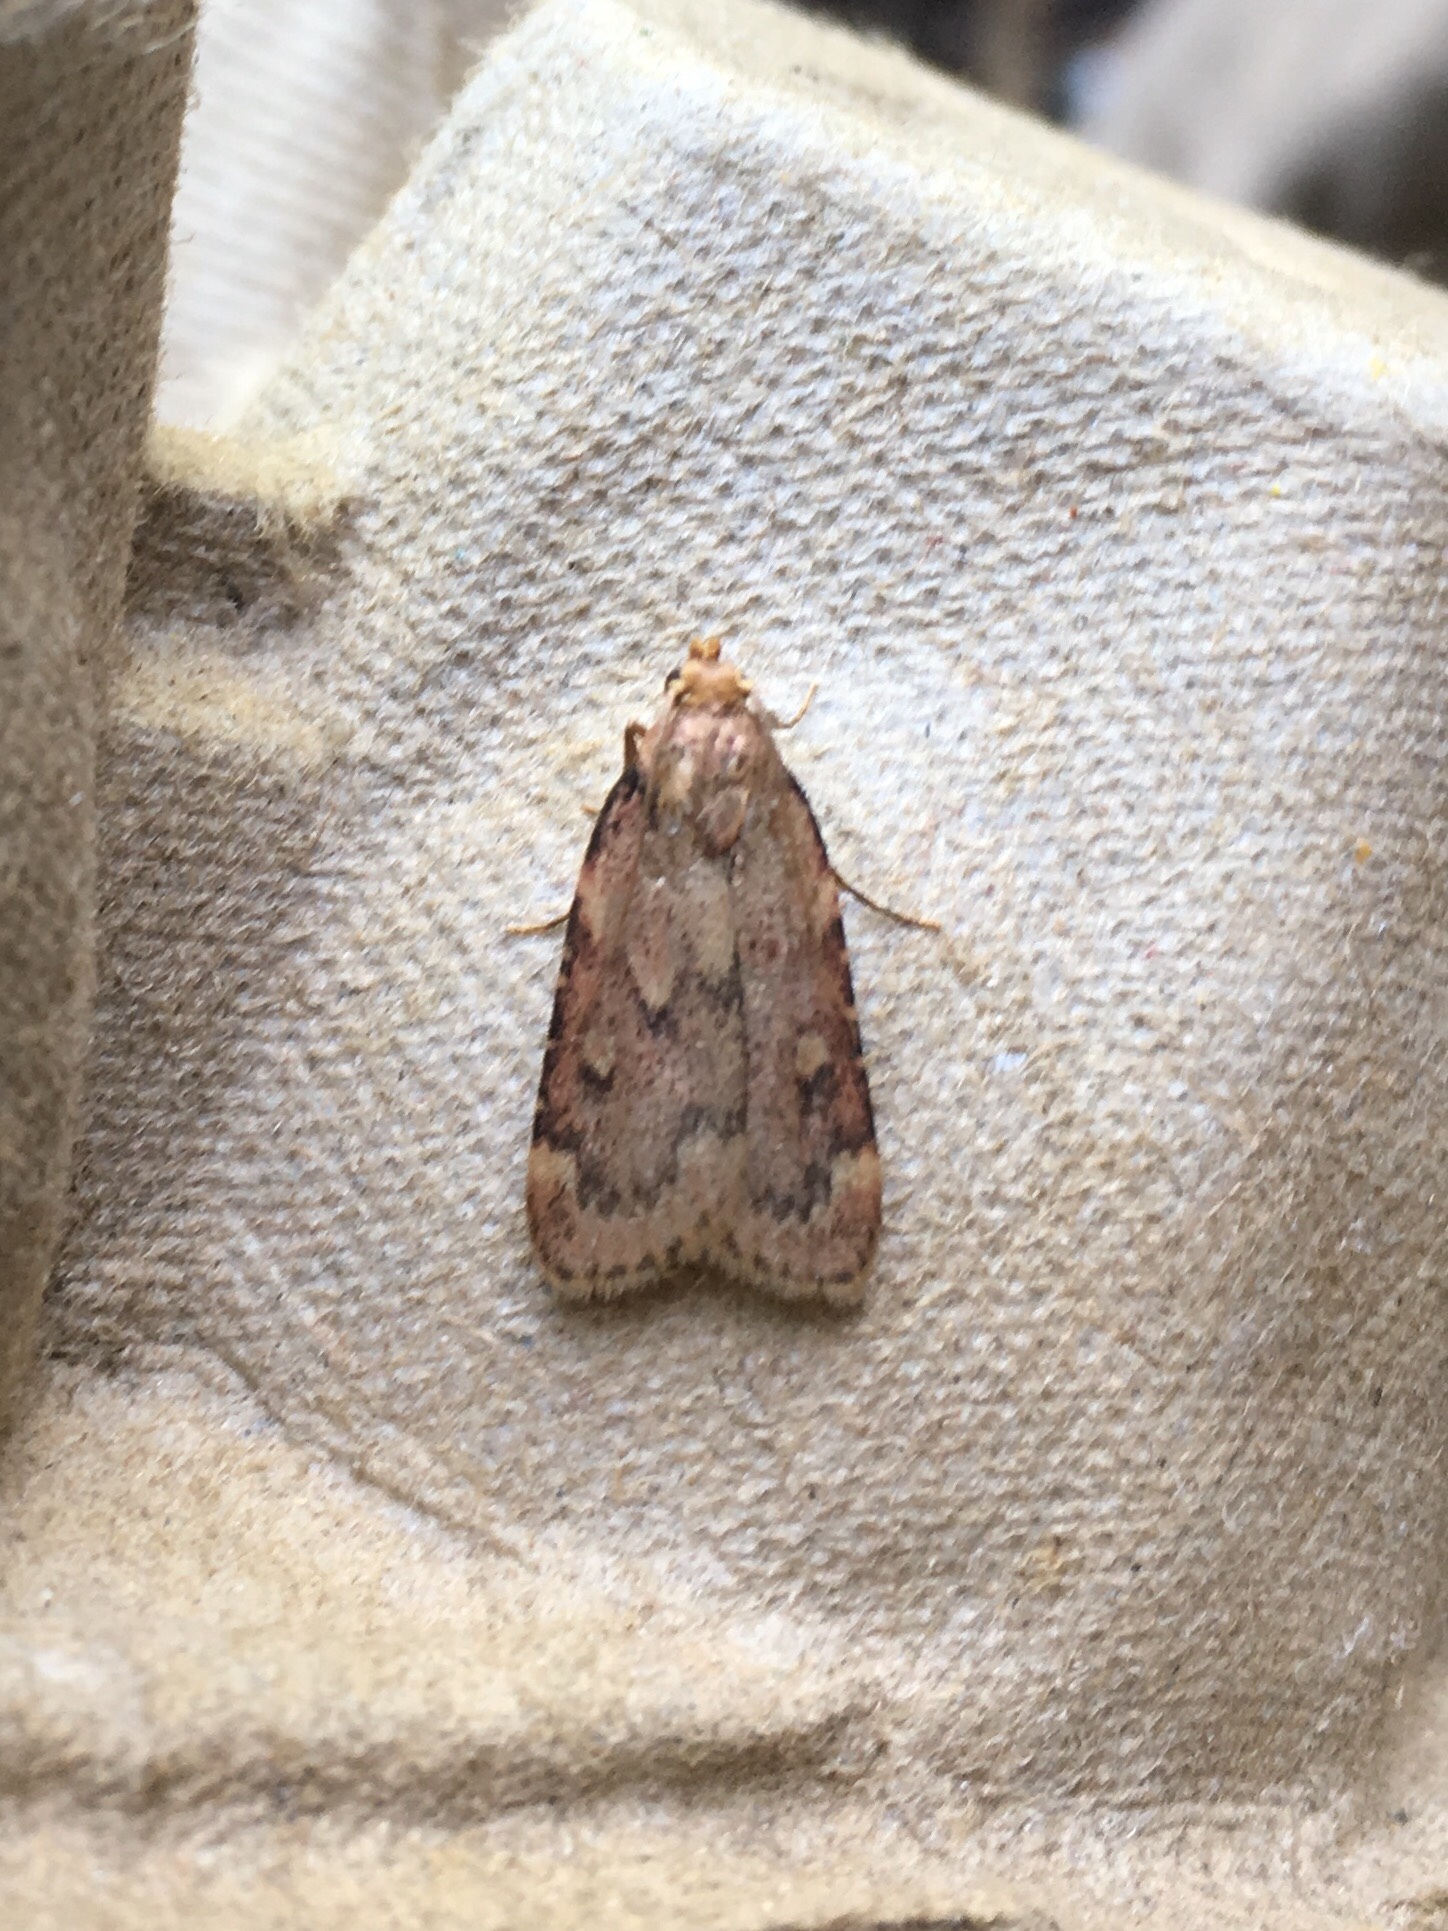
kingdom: Animalia
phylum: Arthropoda
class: Insecta
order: Lepidoptera
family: Pyralidae
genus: Aglossa
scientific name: Aglossa cuprina
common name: Grease moth
